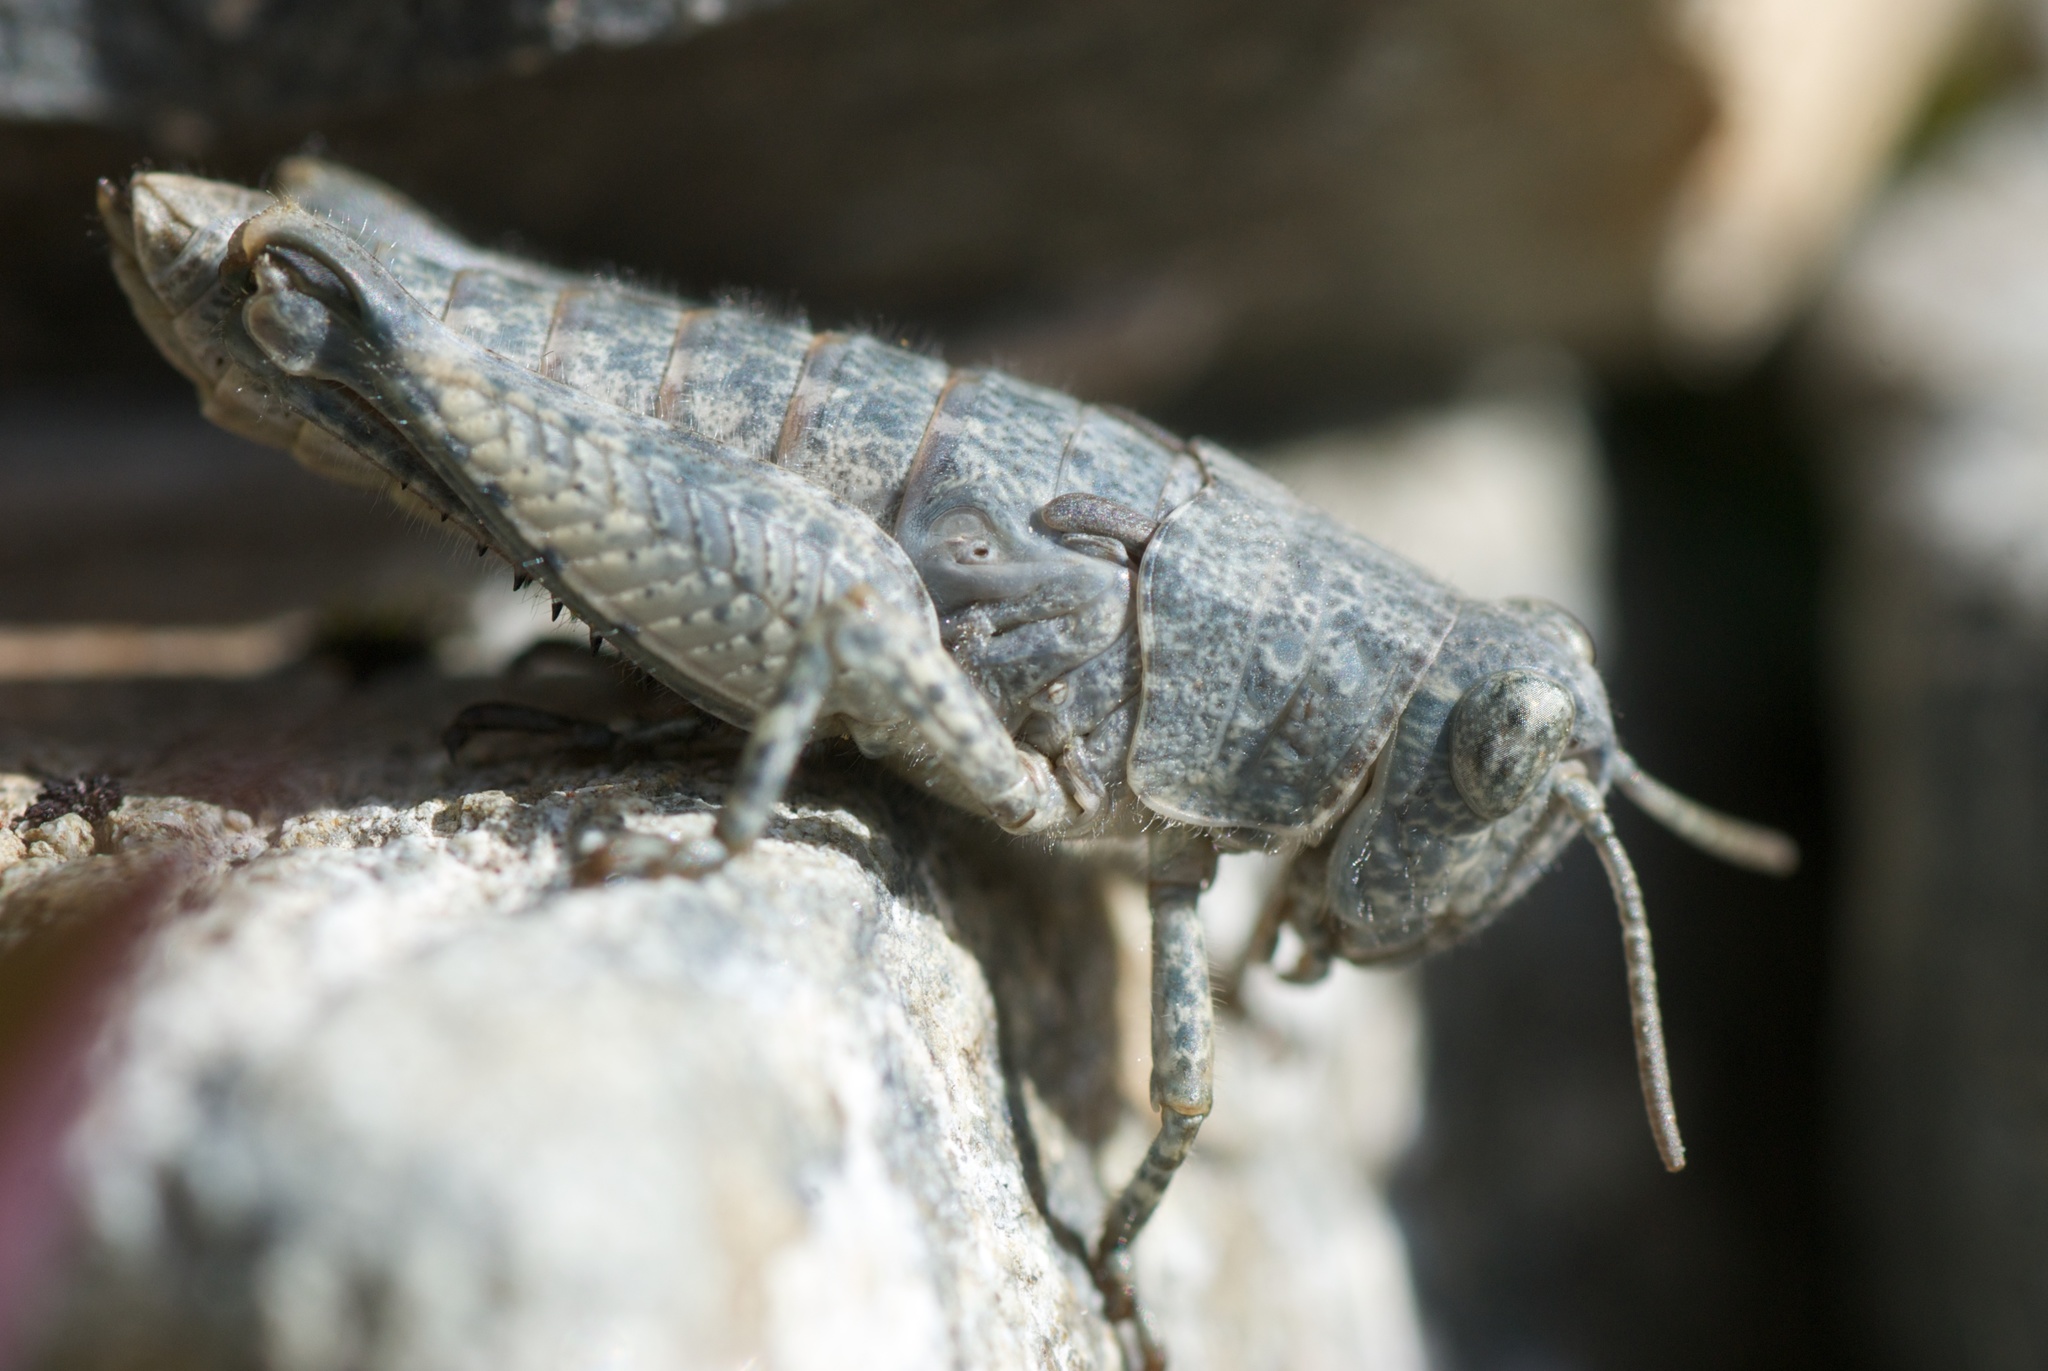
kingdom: Animalia
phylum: Arthropoda
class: Insecta
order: Orthoptera
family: Acrididae
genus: Sigaus
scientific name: Sigaus
